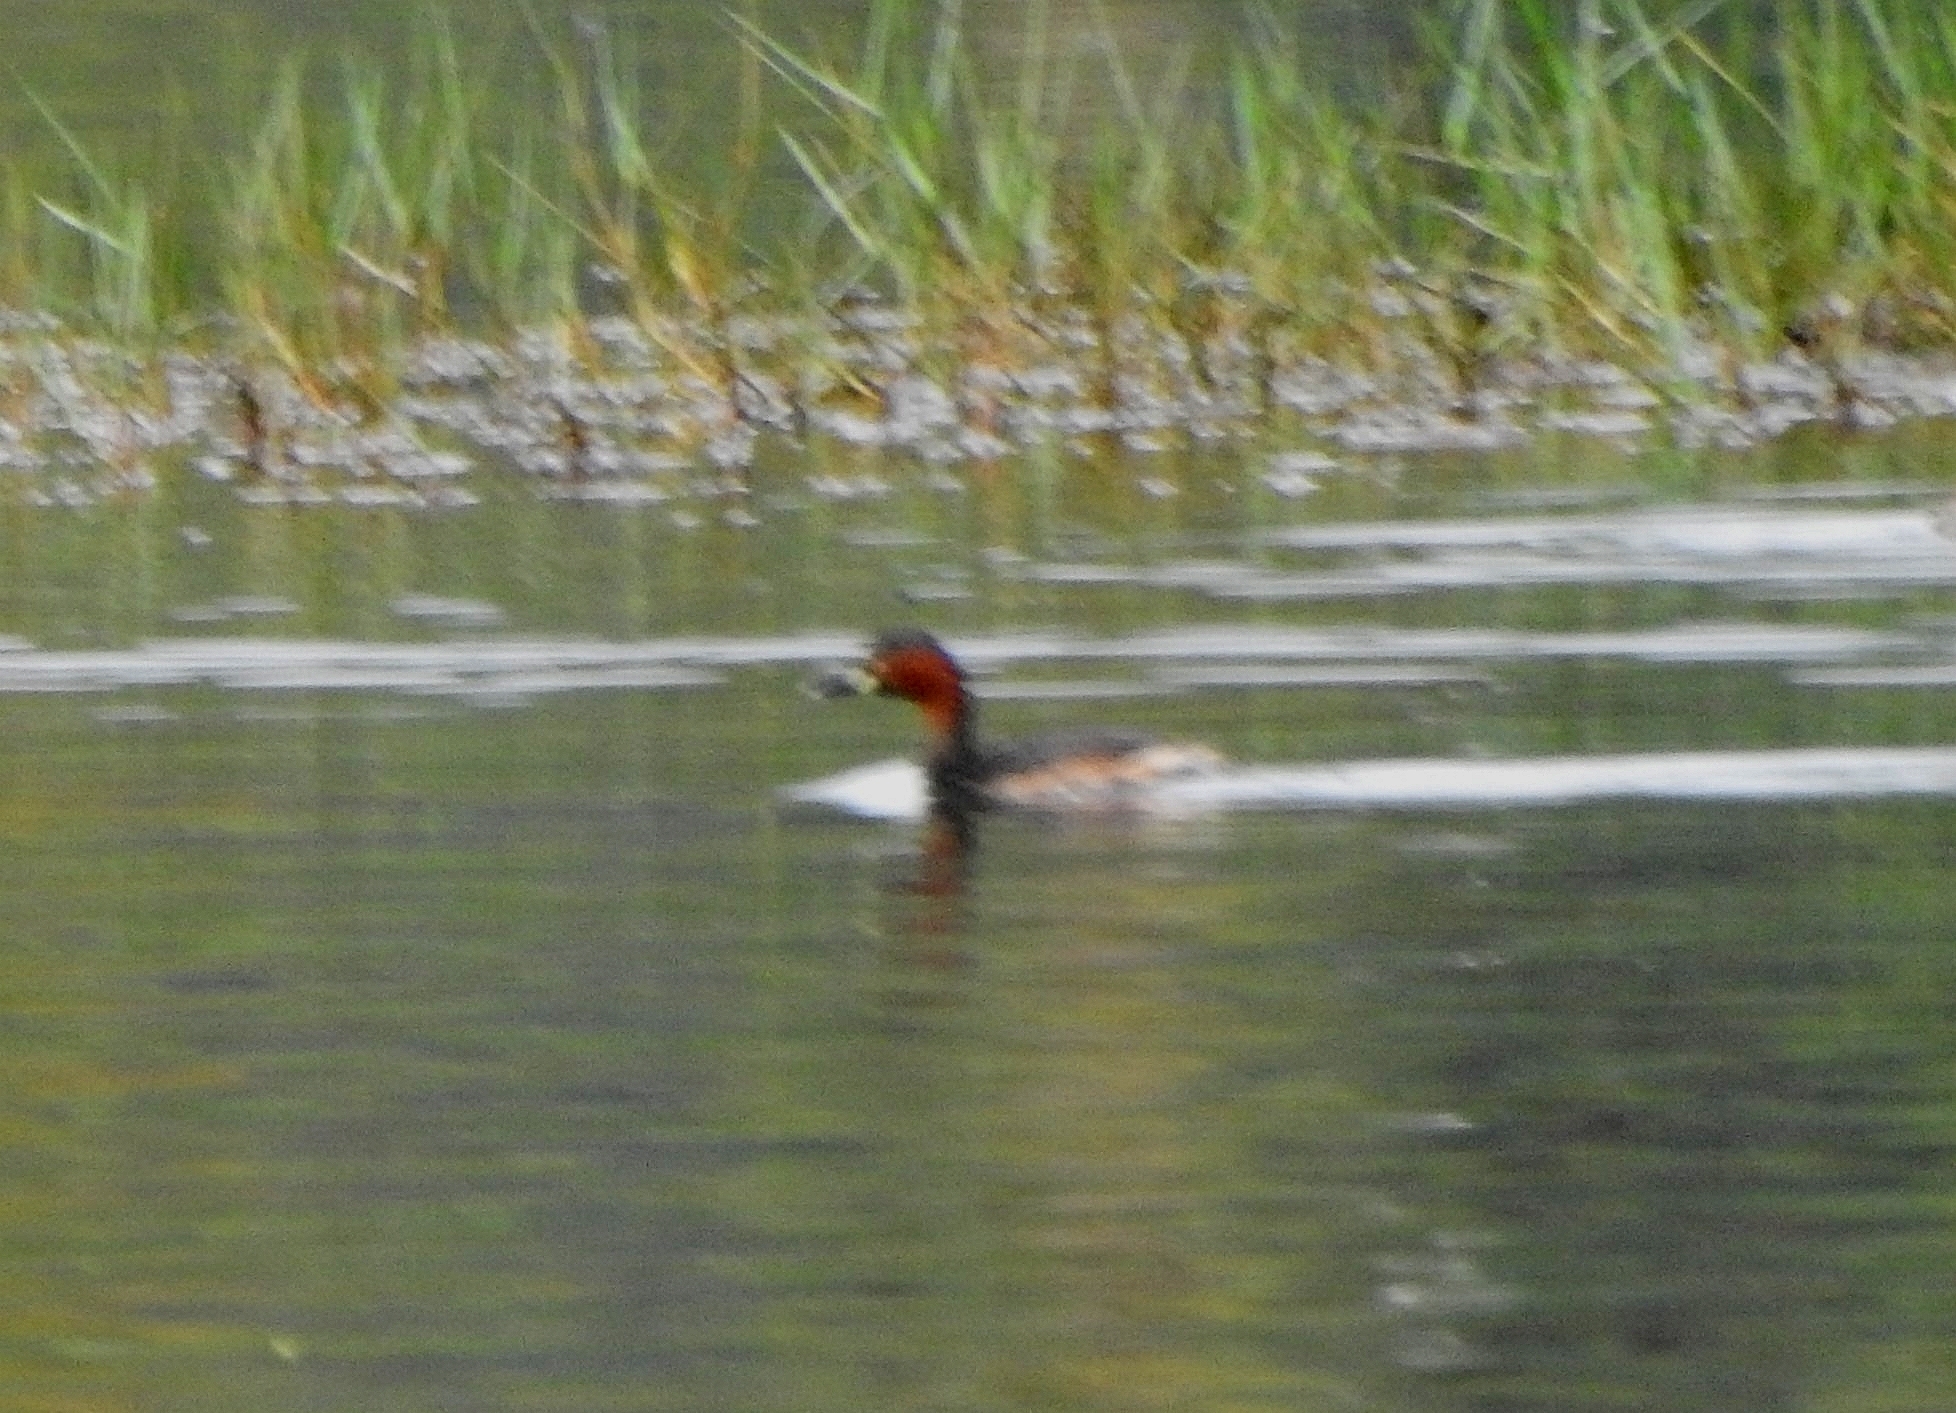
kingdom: Animalia
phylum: Chordata
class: Aves
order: Podicipediformes
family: Podicipedidae
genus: Tachybaptus
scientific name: Tachybaptus ruficollis
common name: Little grebe
